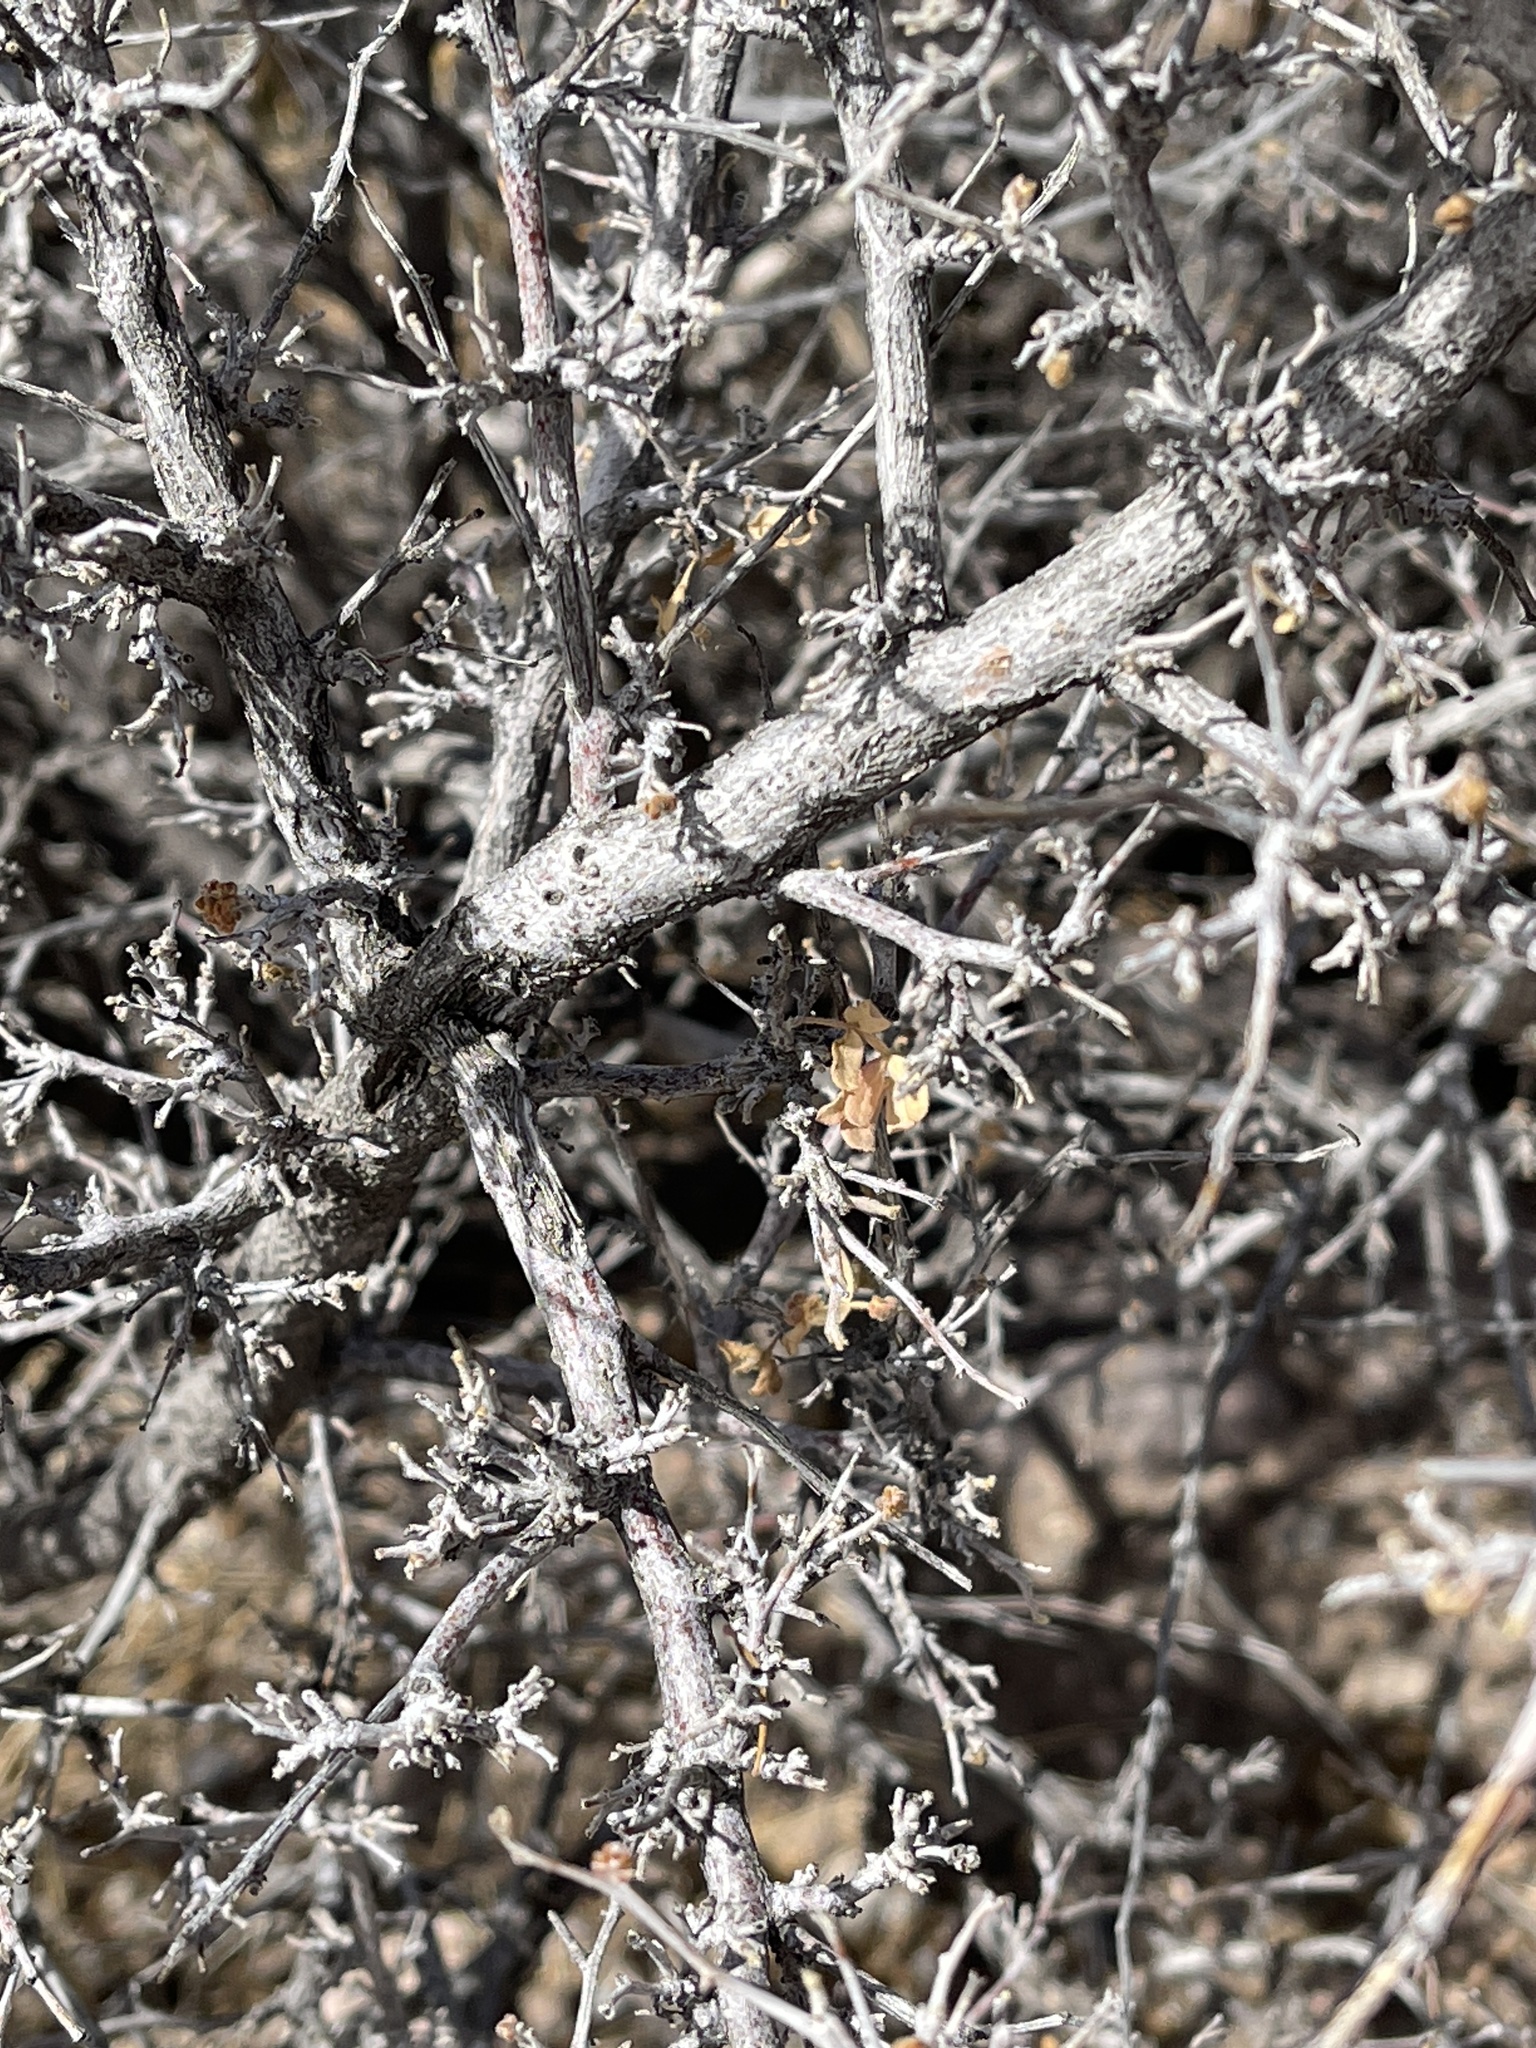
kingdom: Plantae
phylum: Tracheophyta
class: Magnoliopsida
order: Sapindales
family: Anacardiaceae
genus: Rhus
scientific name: Rhus microphylla
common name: Desert sumac
